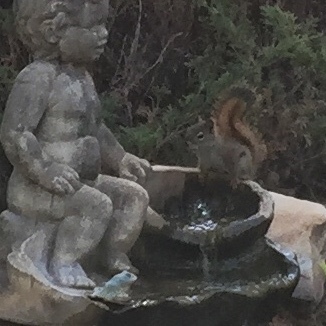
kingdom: Animalia
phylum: Chordata
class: Mammalia
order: Rodentia
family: Sciuridae
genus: Tamiasciurus
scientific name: Tamiasciurus hudsonicus
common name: Red squirrel
